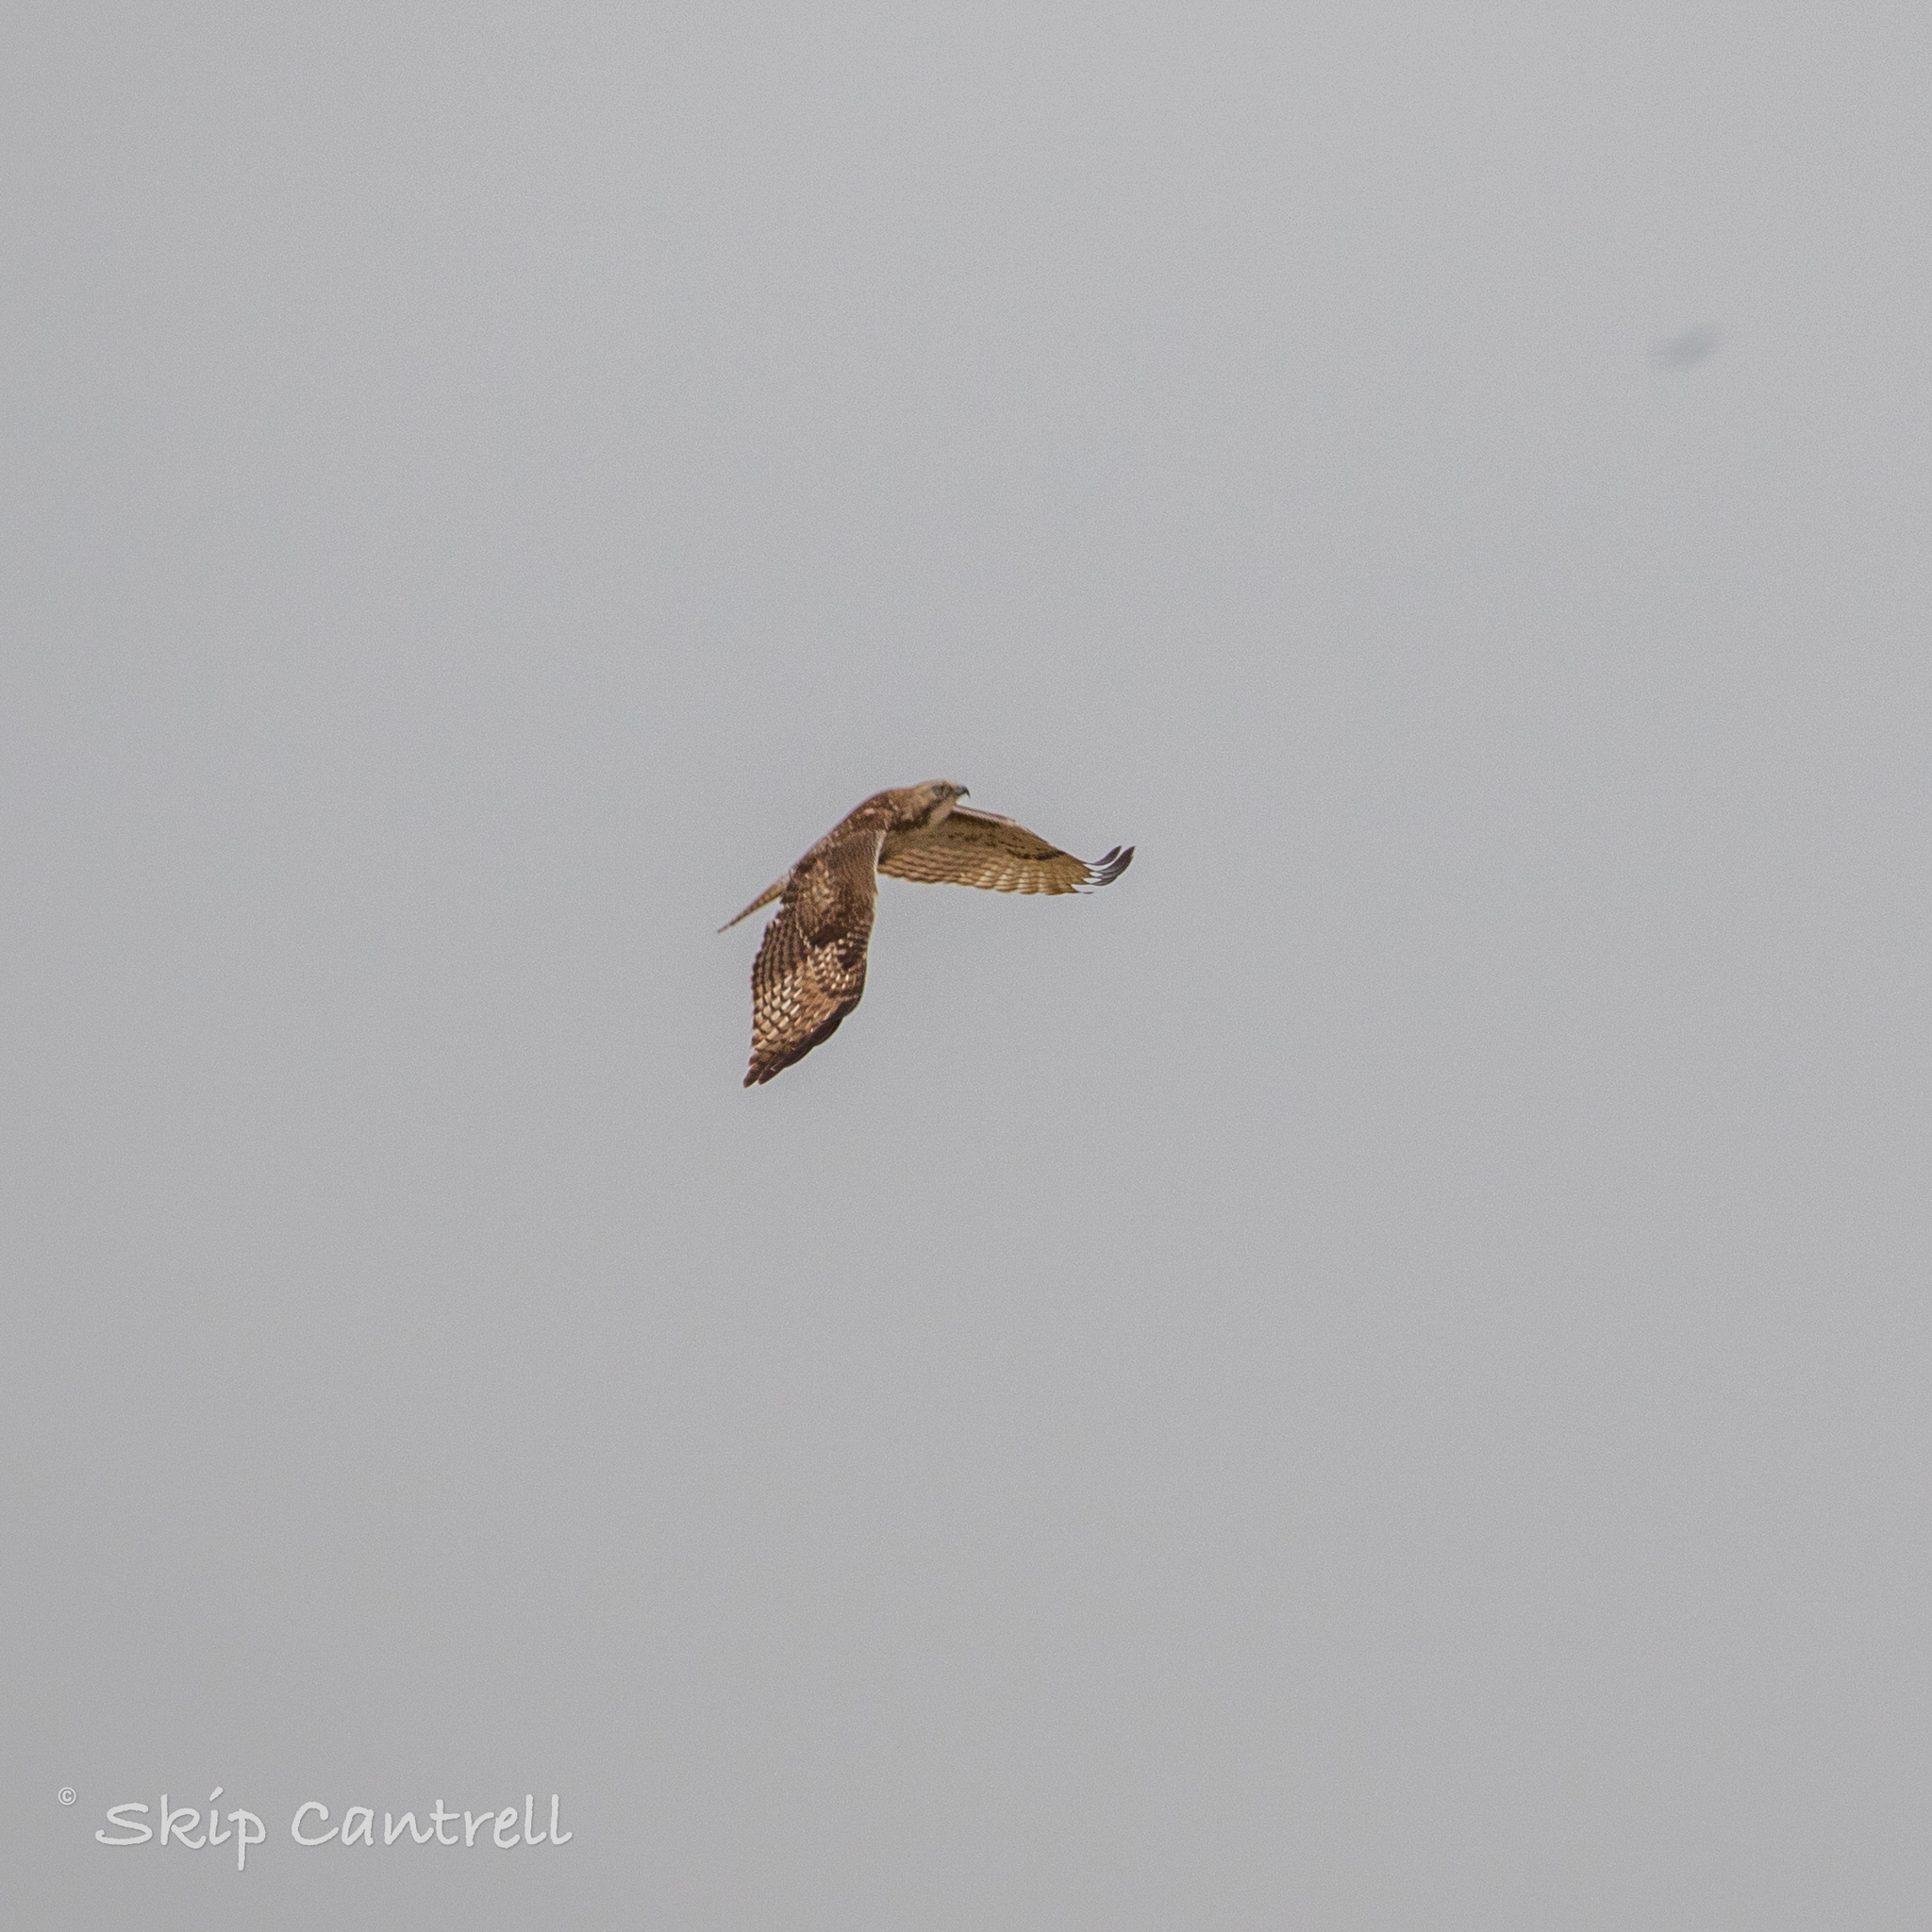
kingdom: Animalia
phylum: Chordata
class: Aves
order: Accipitriformes
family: Accipitridae
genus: Buteo
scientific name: Buteo jamaicensis
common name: Red-tailed hawk
